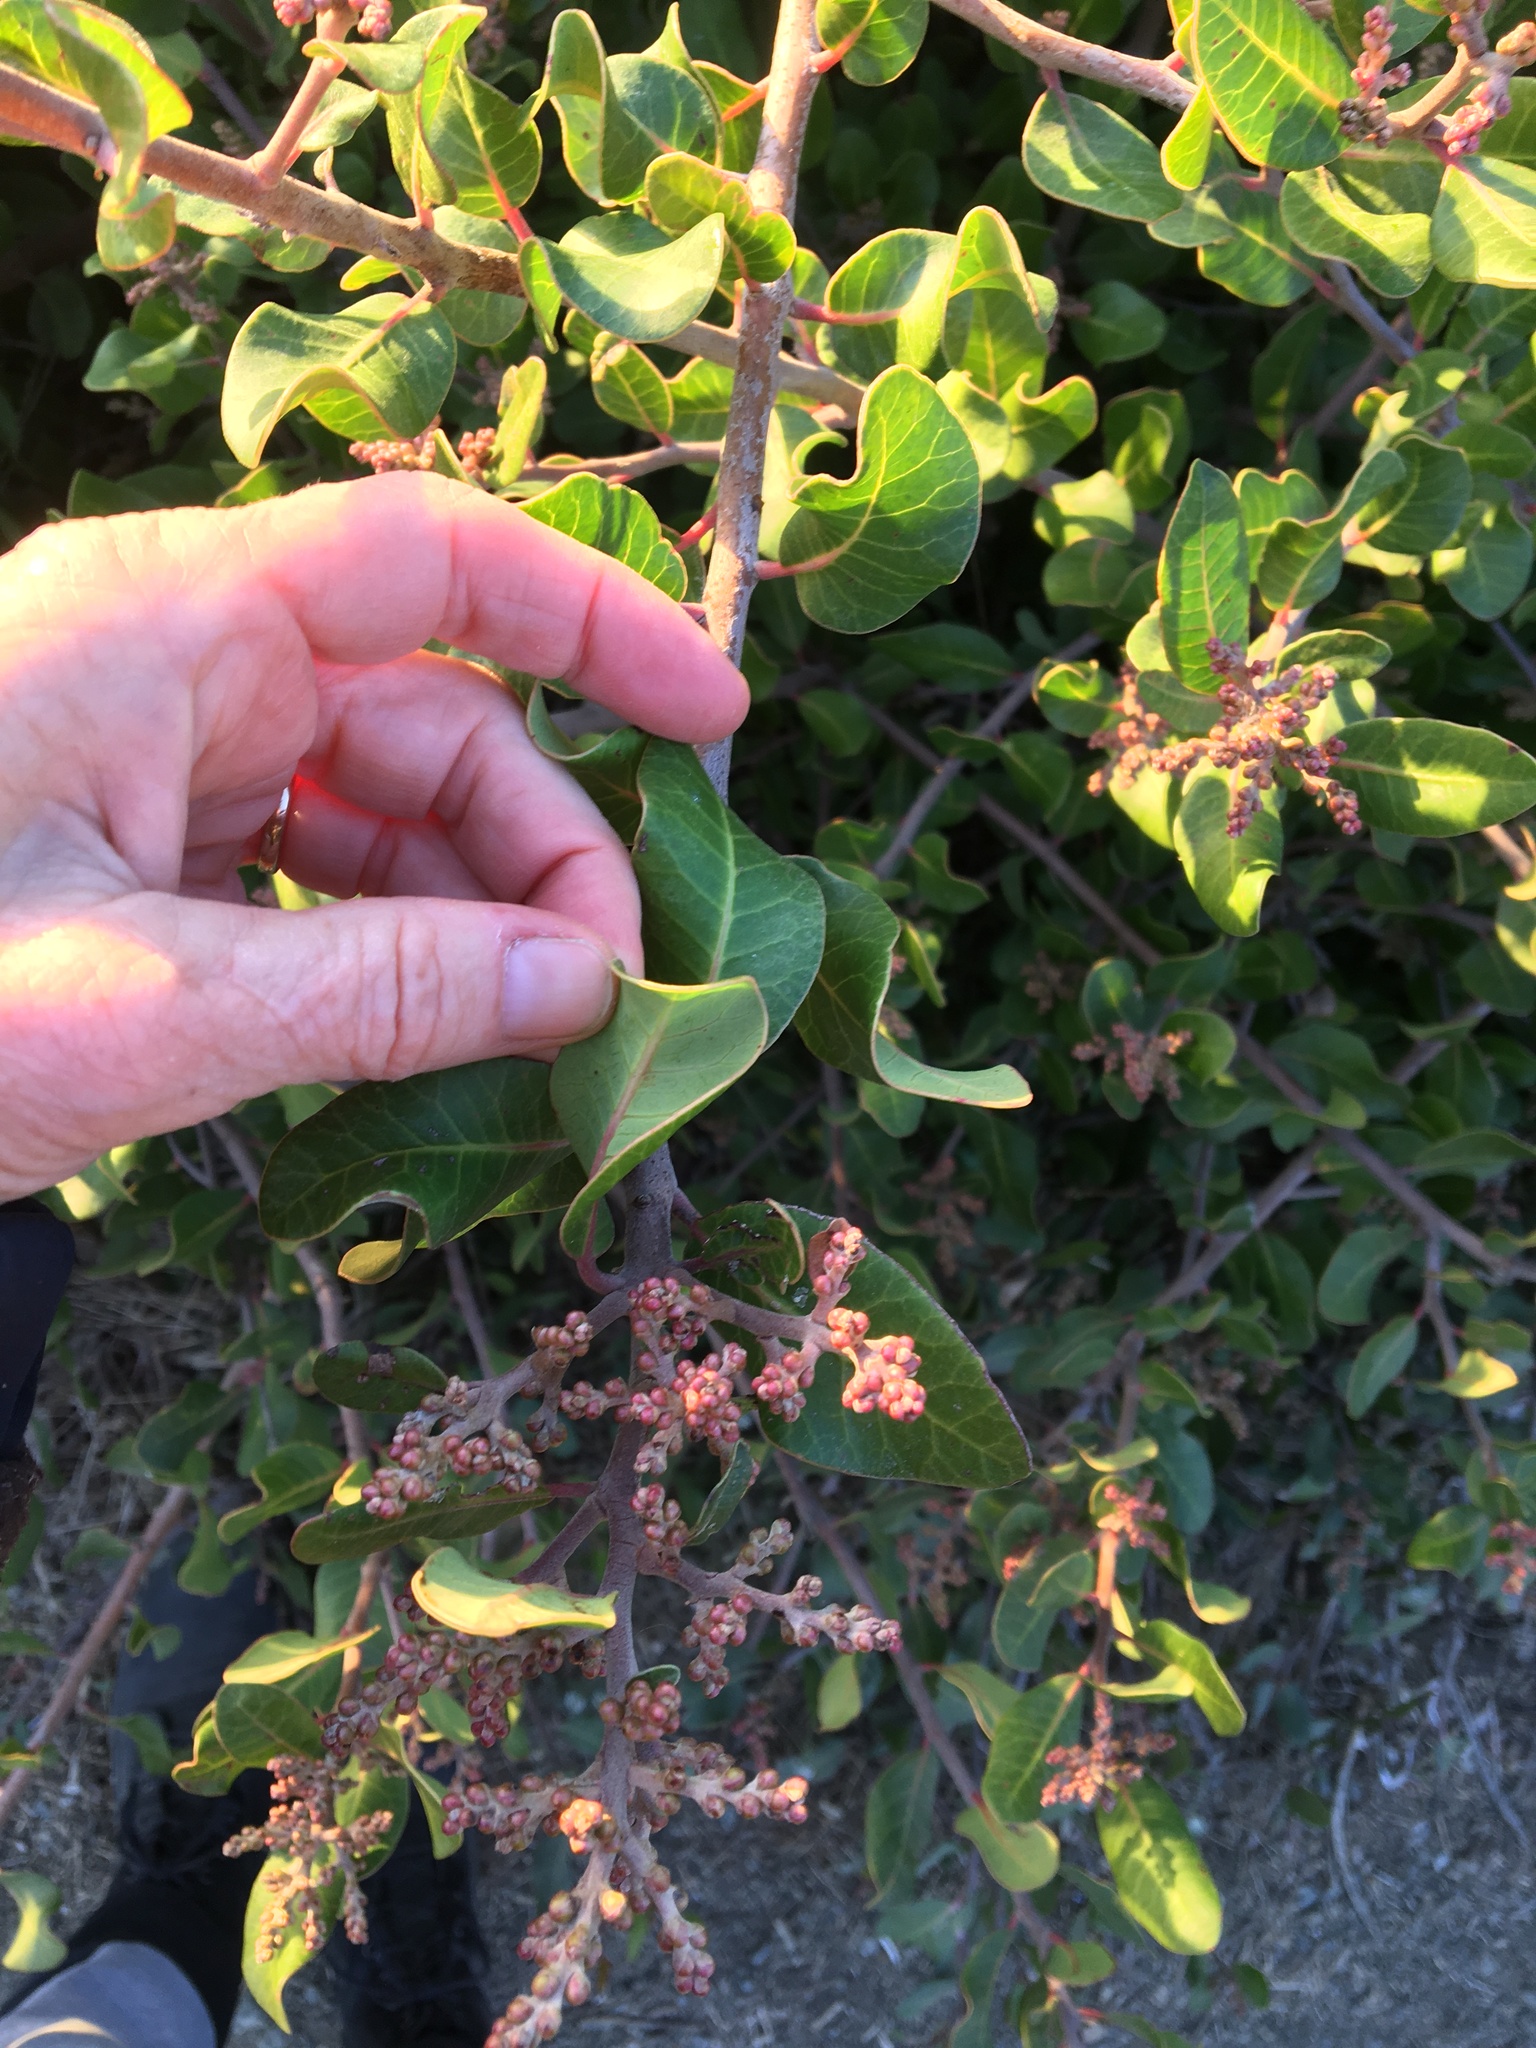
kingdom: Plantae
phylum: Tracheophyta
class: Magnoliopsida
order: Sapindales
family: Anacardiaceae
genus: Rhus
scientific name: Rhus integrifolia
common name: Lemonade sumac
